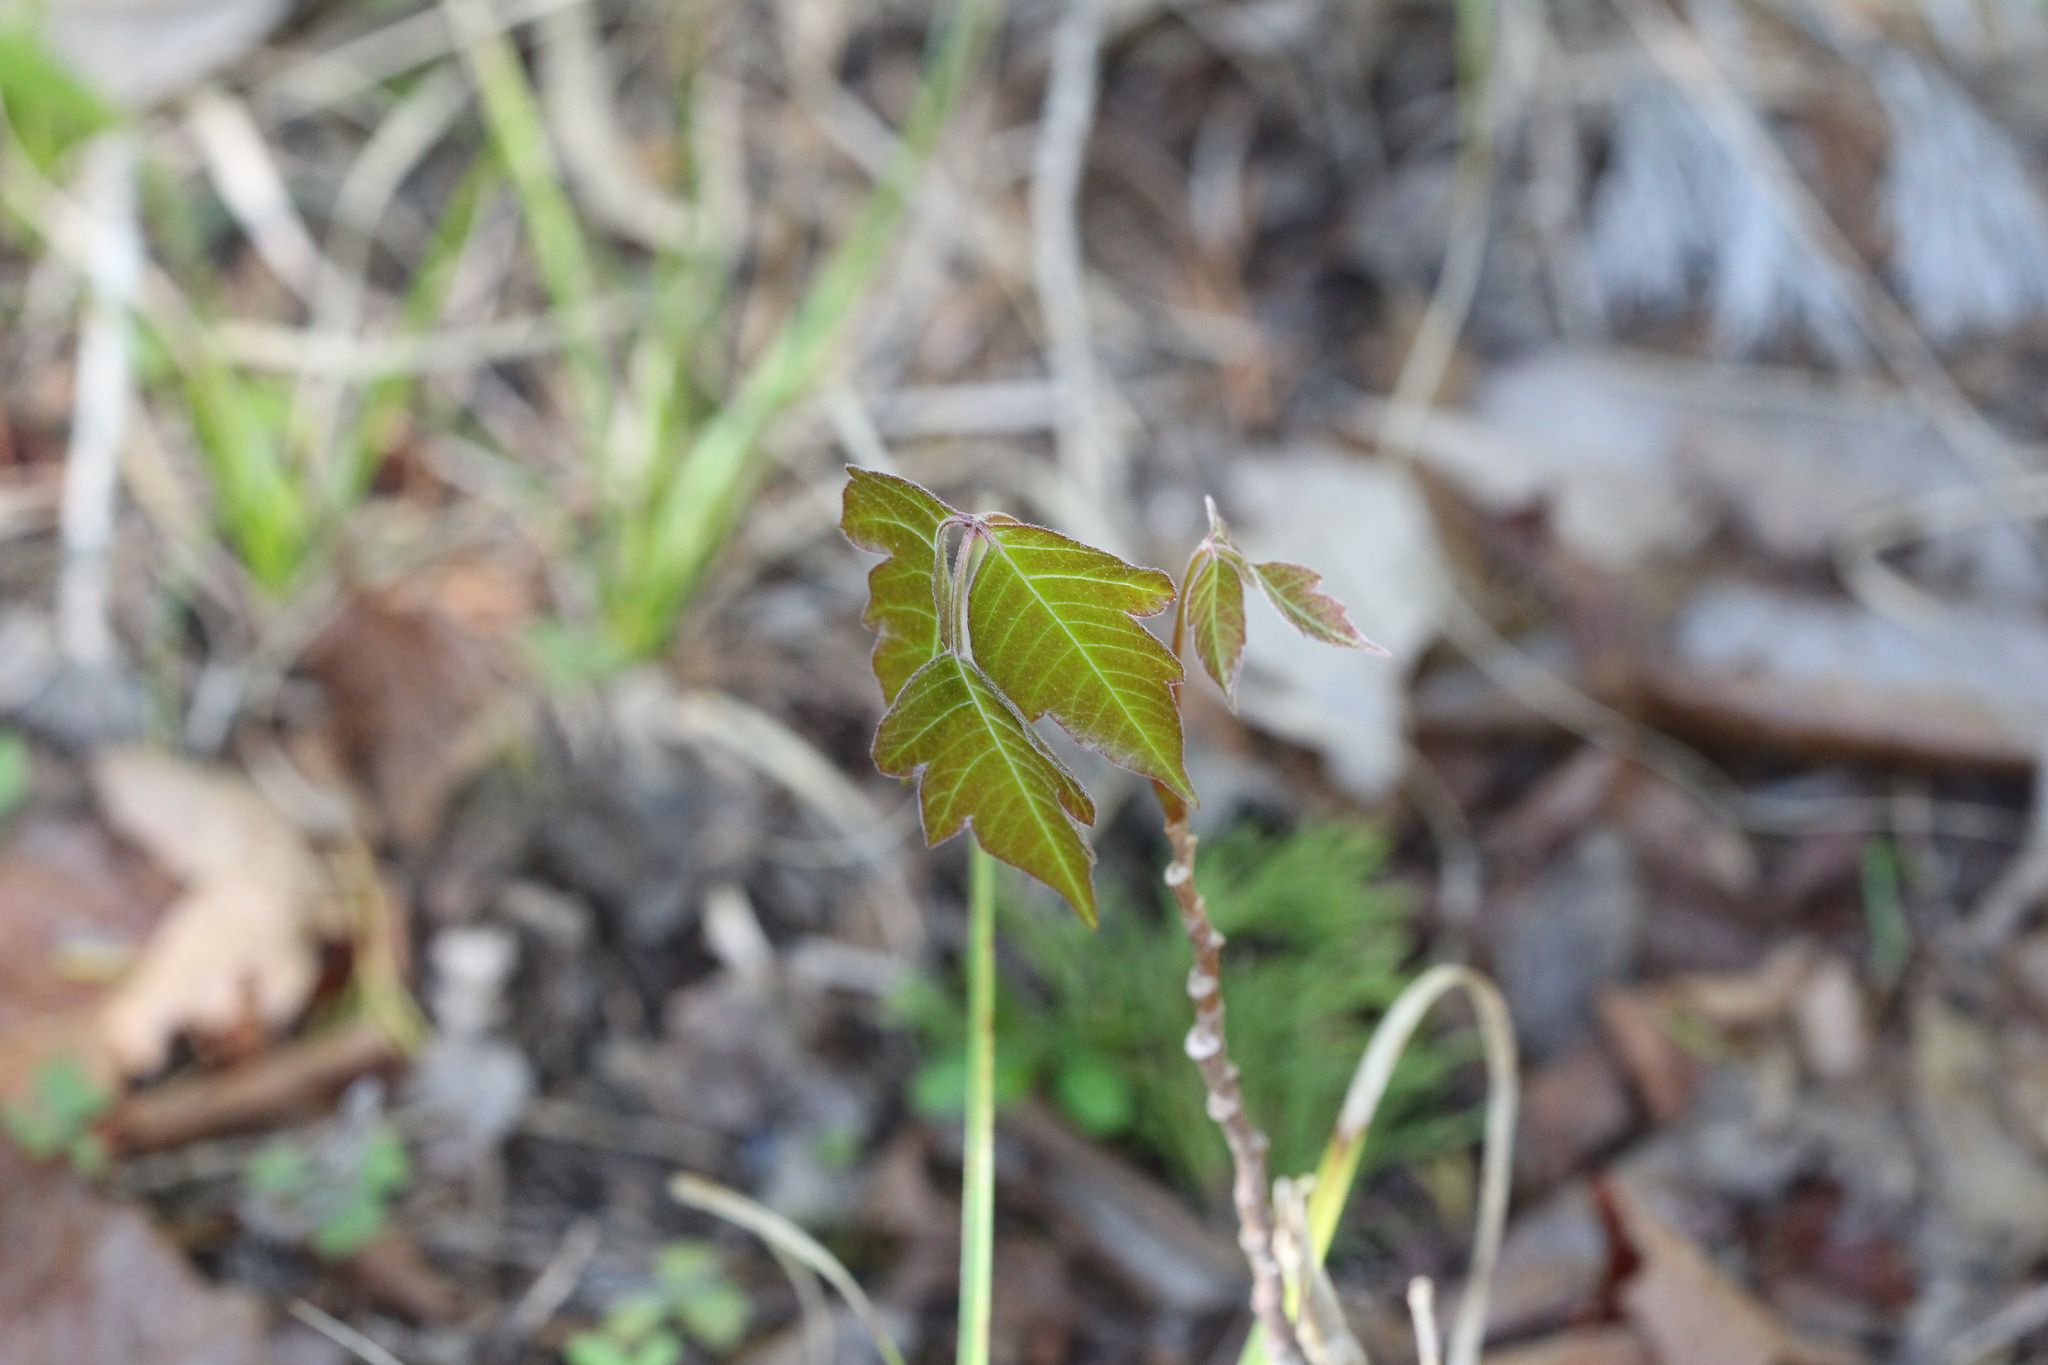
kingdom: Plantae
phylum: Tracheophyta
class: Magnoliopsida
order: Sapindales
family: Anacardiaceae
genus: Toxicodendron
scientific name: Toxicodendron radicans
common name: Poison ivy
